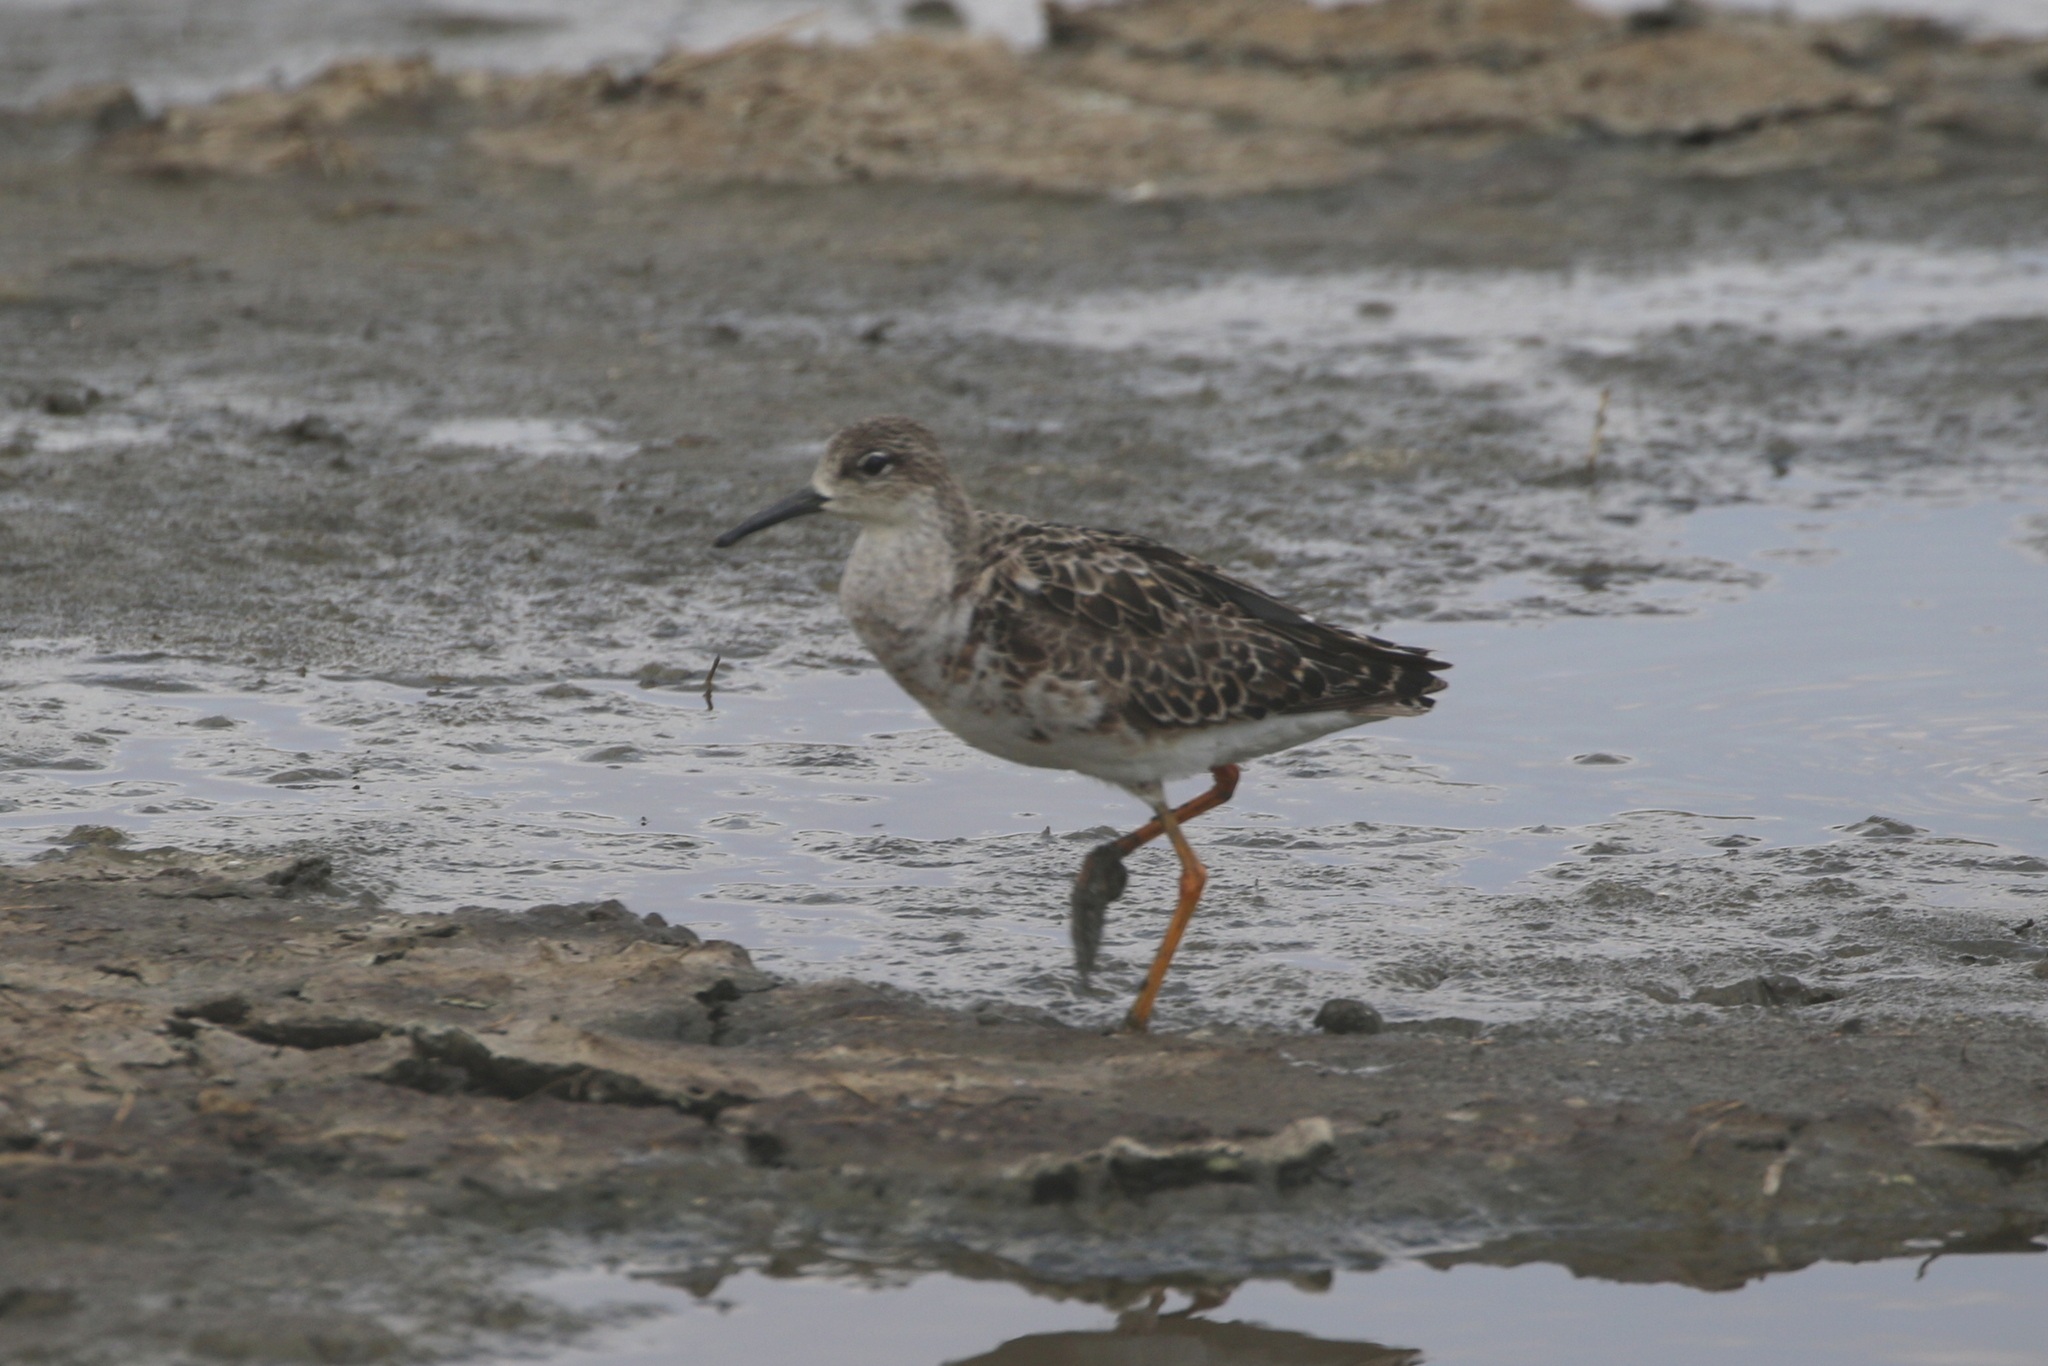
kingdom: Animalia
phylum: Chordata
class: Aves
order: Charadriiformes
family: Scolopacidae
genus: Calidris
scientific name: Calidris pugnax
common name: Ruff
